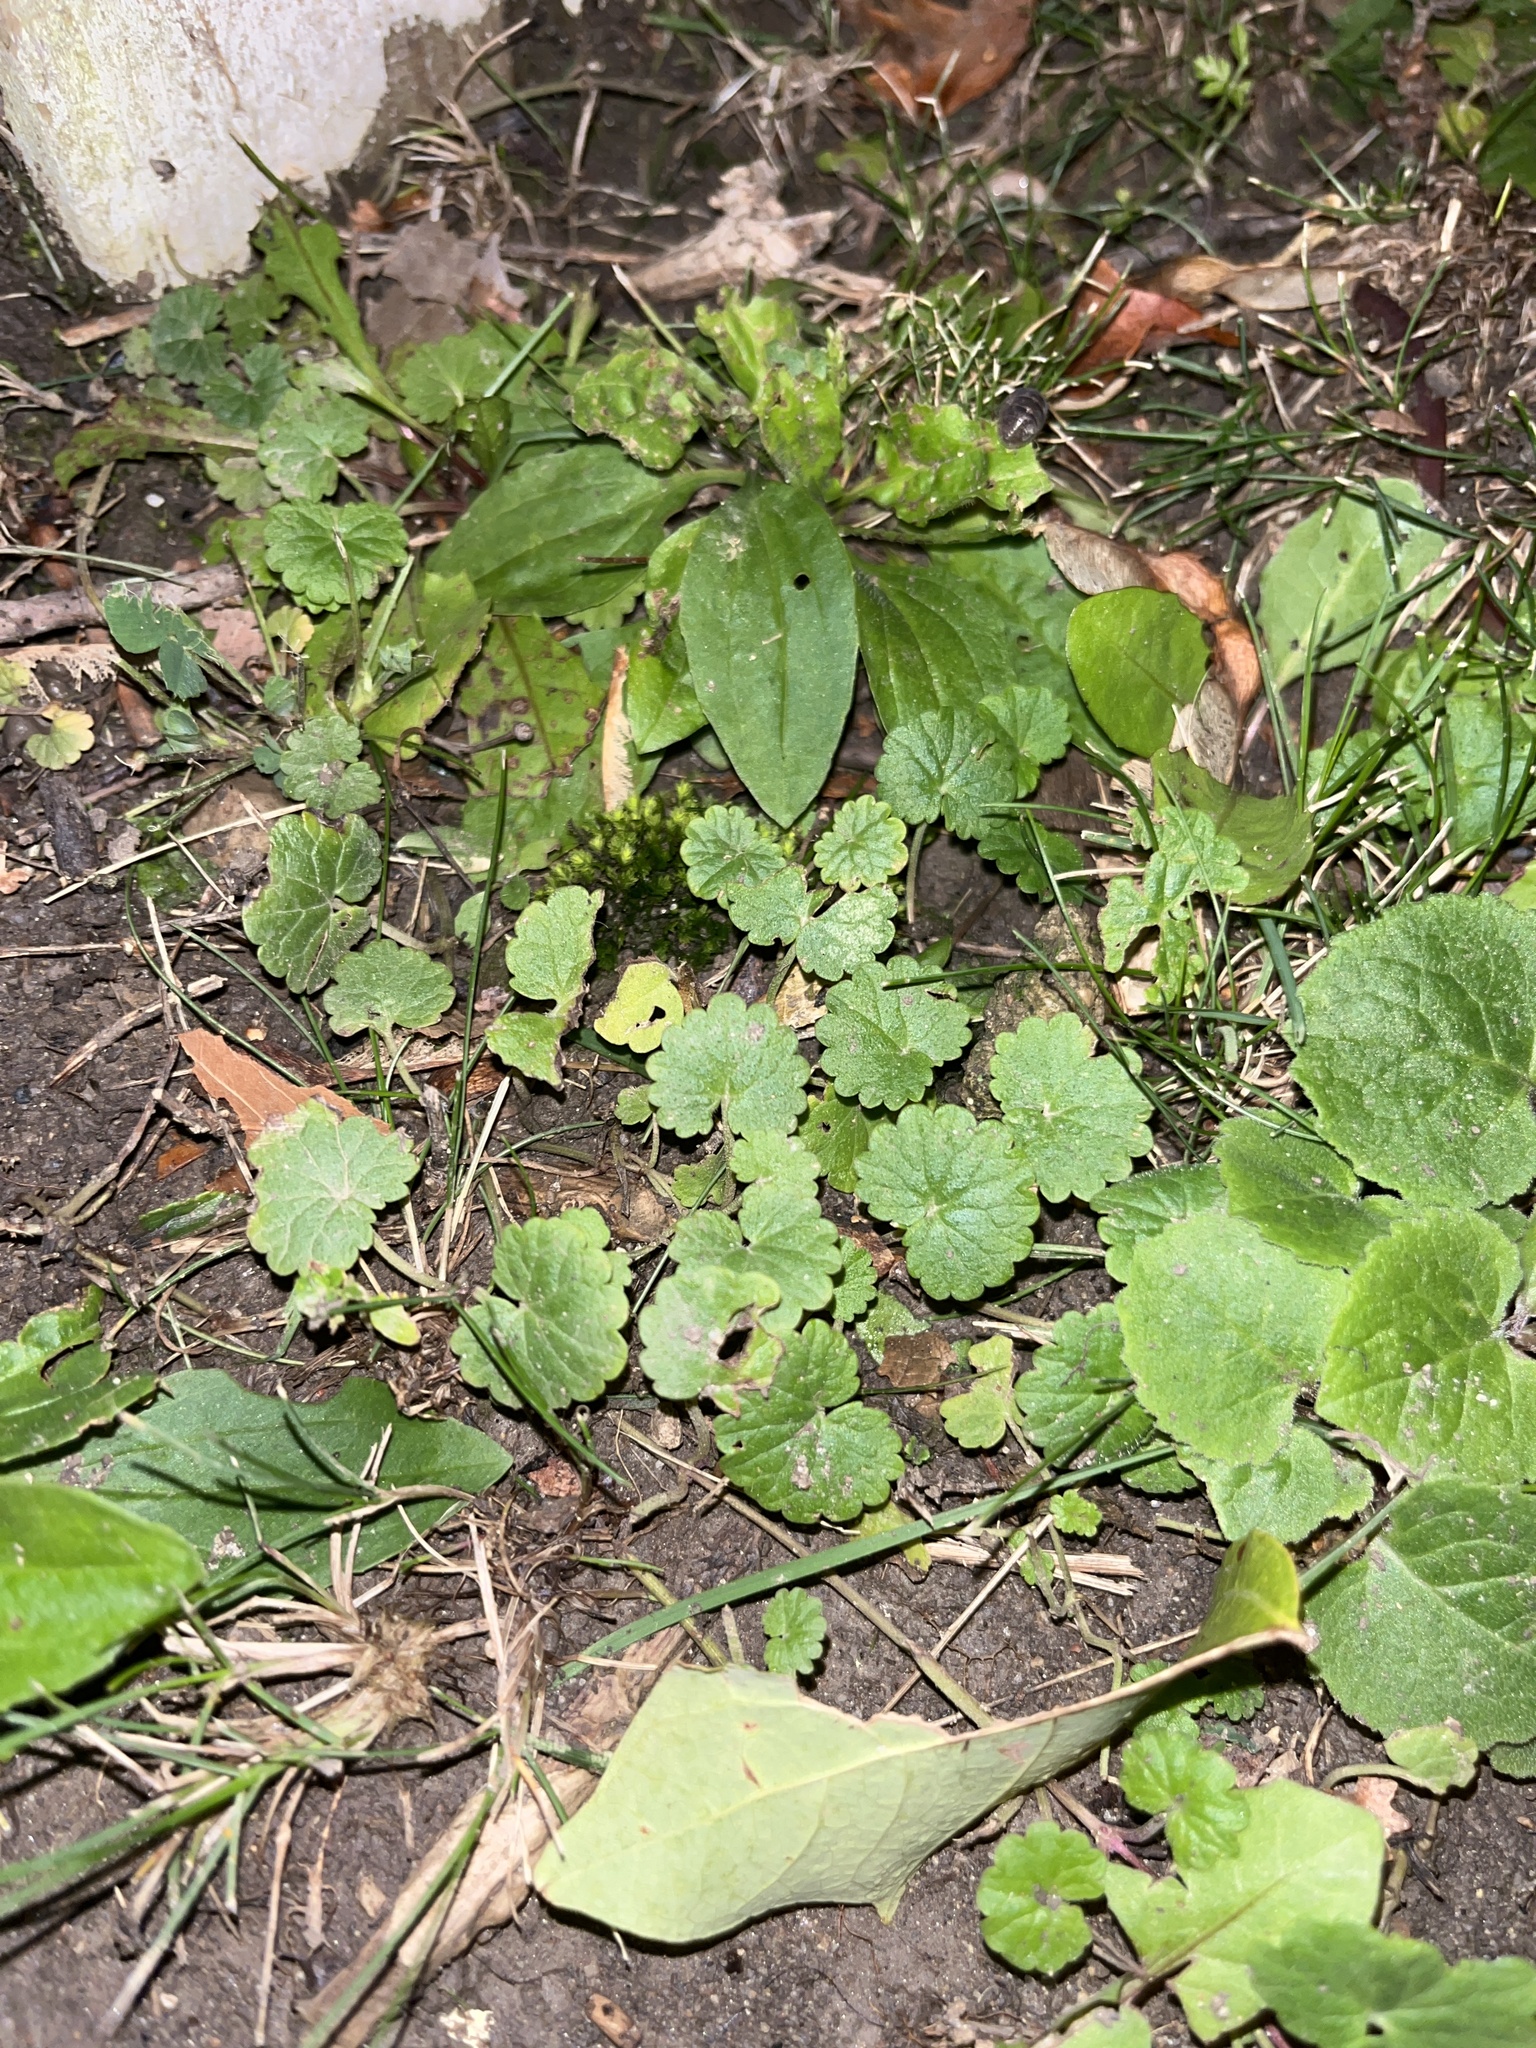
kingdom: Plantae
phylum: Tracheophyta
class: Magnoliopsida
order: Lamiales
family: Lamiaceae
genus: Glechoma
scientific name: Glechoma hederacea
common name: Ground ivy
